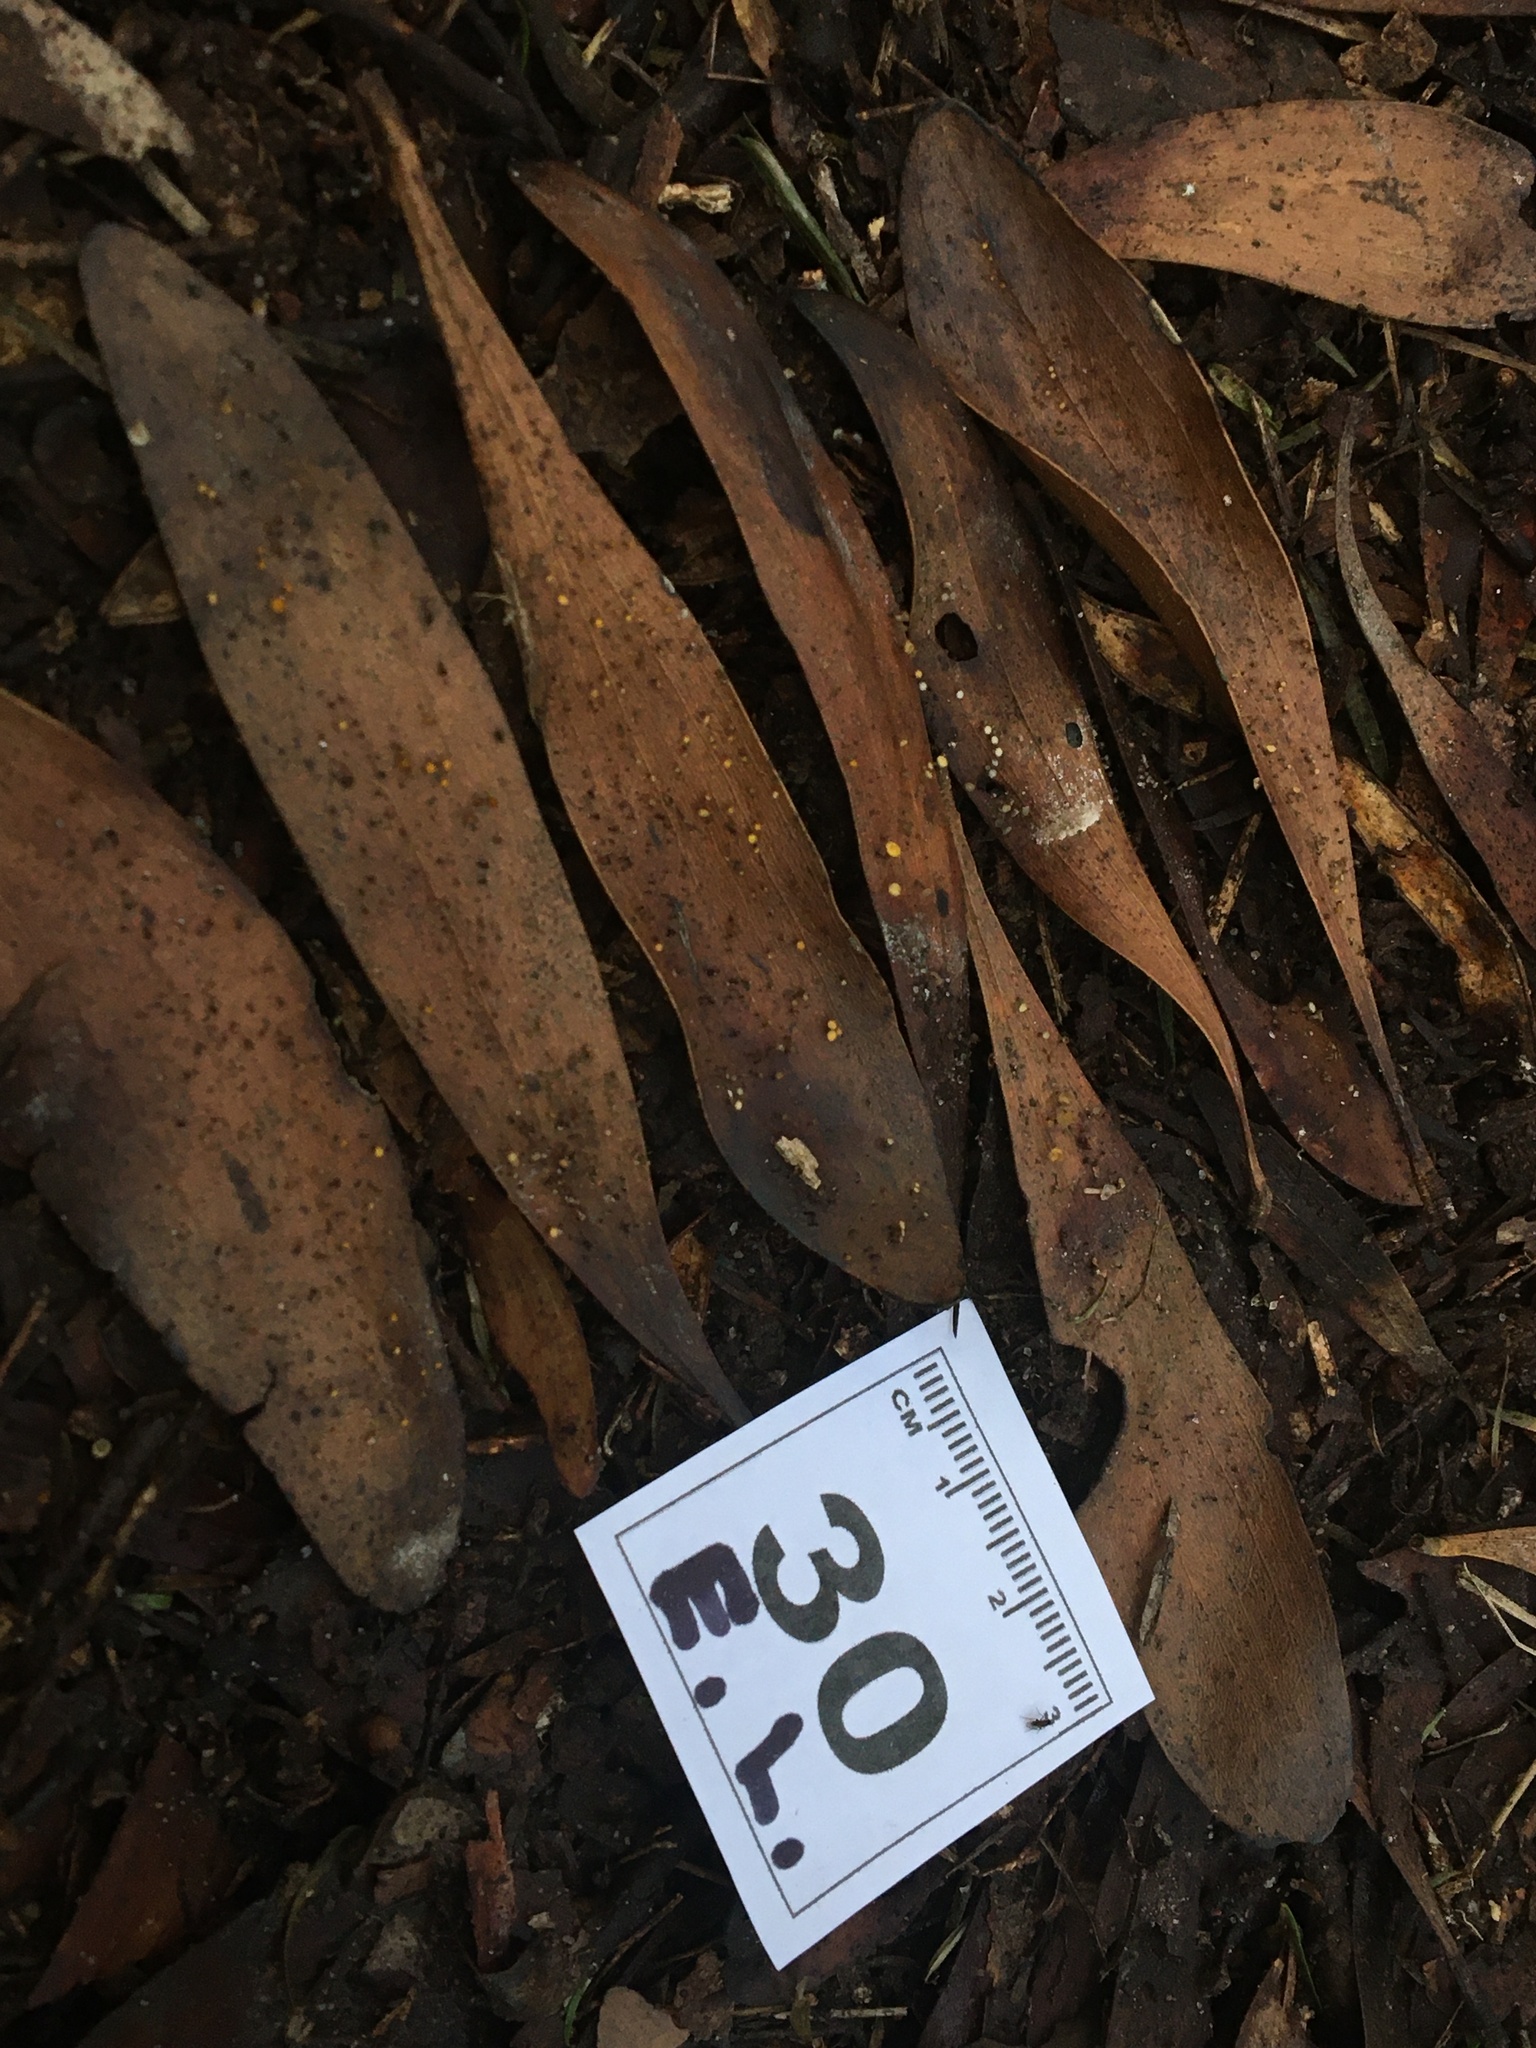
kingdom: Fungi
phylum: Ascomycota
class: Leotiomycetes
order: Helotiales
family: Helotiaceae
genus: Hymenotorrendiella
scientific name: Hymenotorrendiella eucalypti
